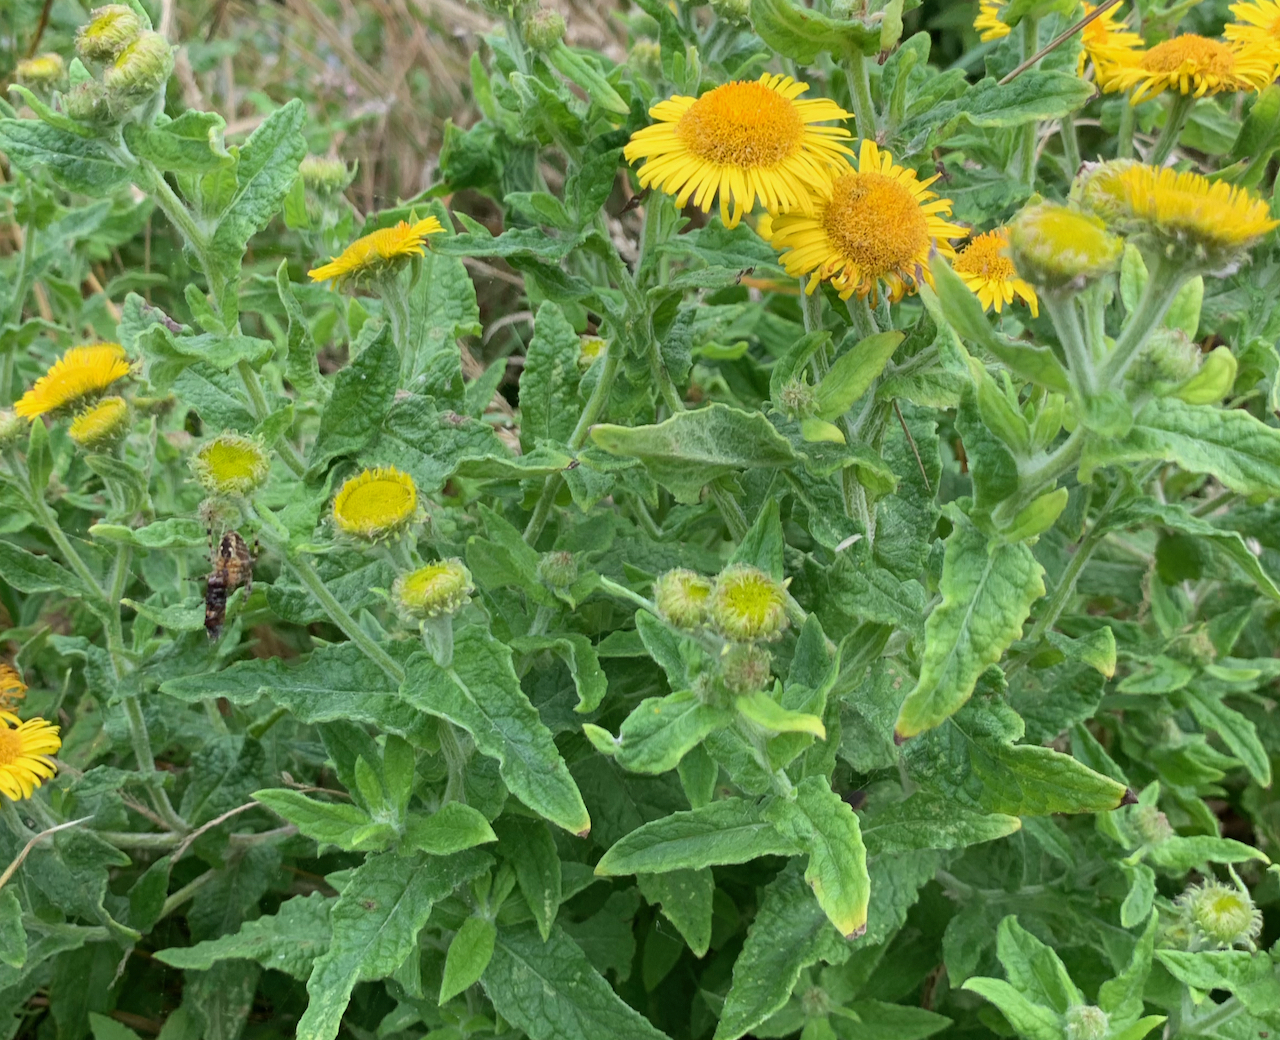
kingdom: Plantae
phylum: Tracheophyta
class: Magnoliopsida
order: Asterales
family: Asteraceae
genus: Pulicaria
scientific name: Pulicaria dysenterica
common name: Common fleabane
